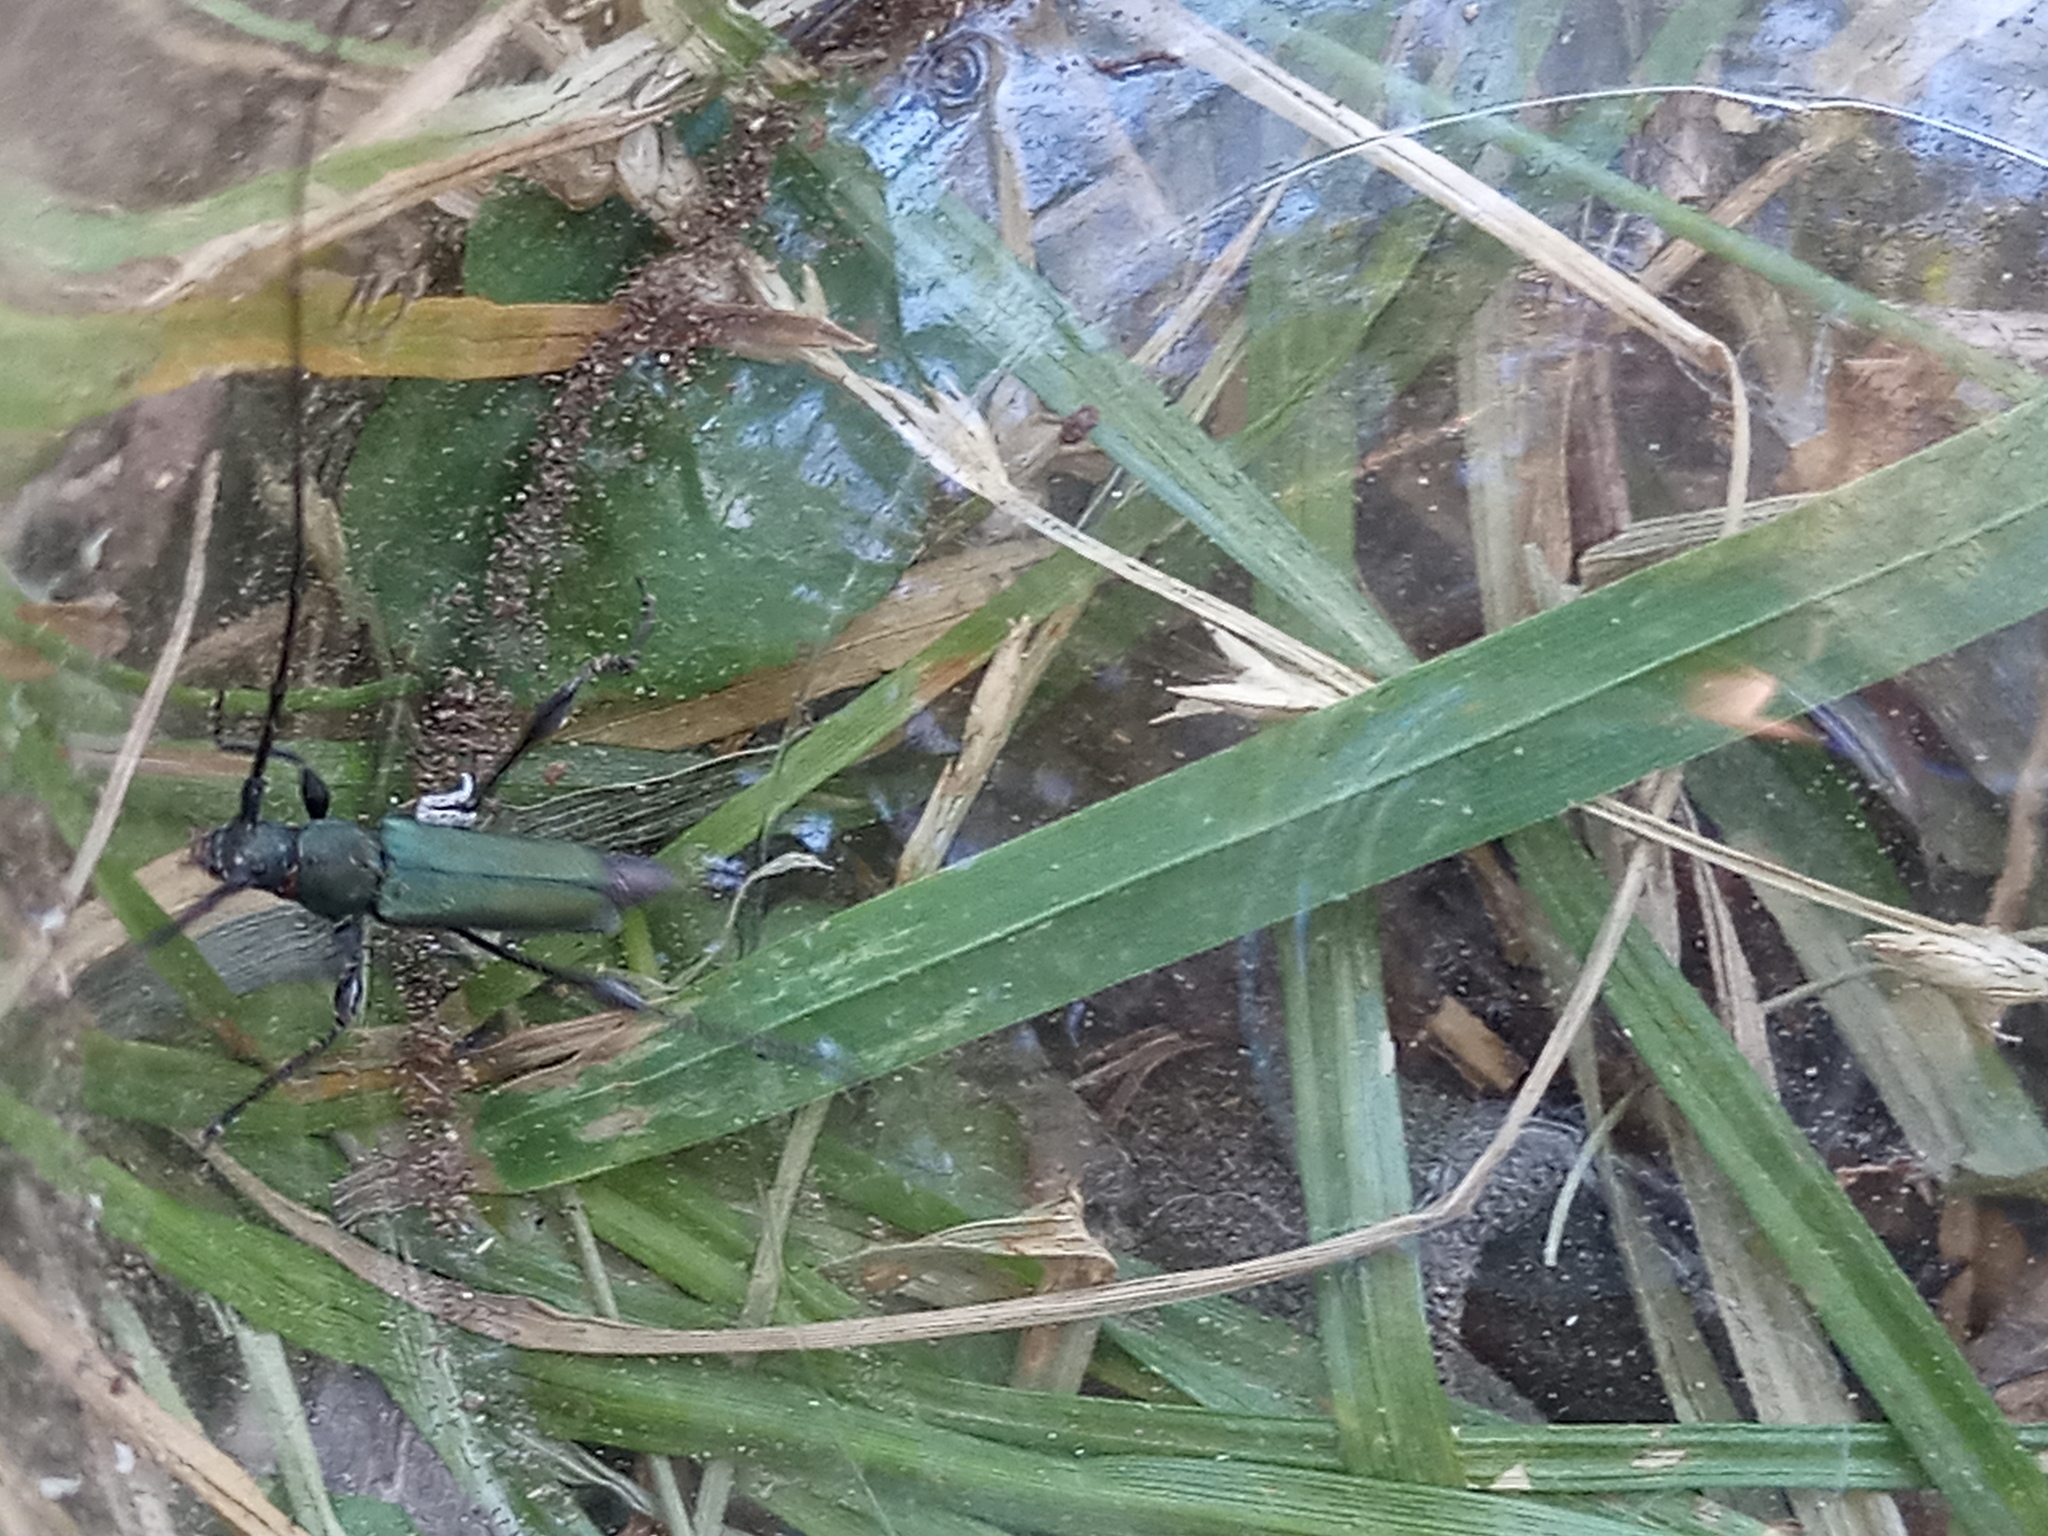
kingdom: Animalia
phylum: Arthropoda
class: Insecta
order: Coleoptera
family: Cerambycidae
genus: Ischionodonta
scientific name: Ischionodonta platensis
